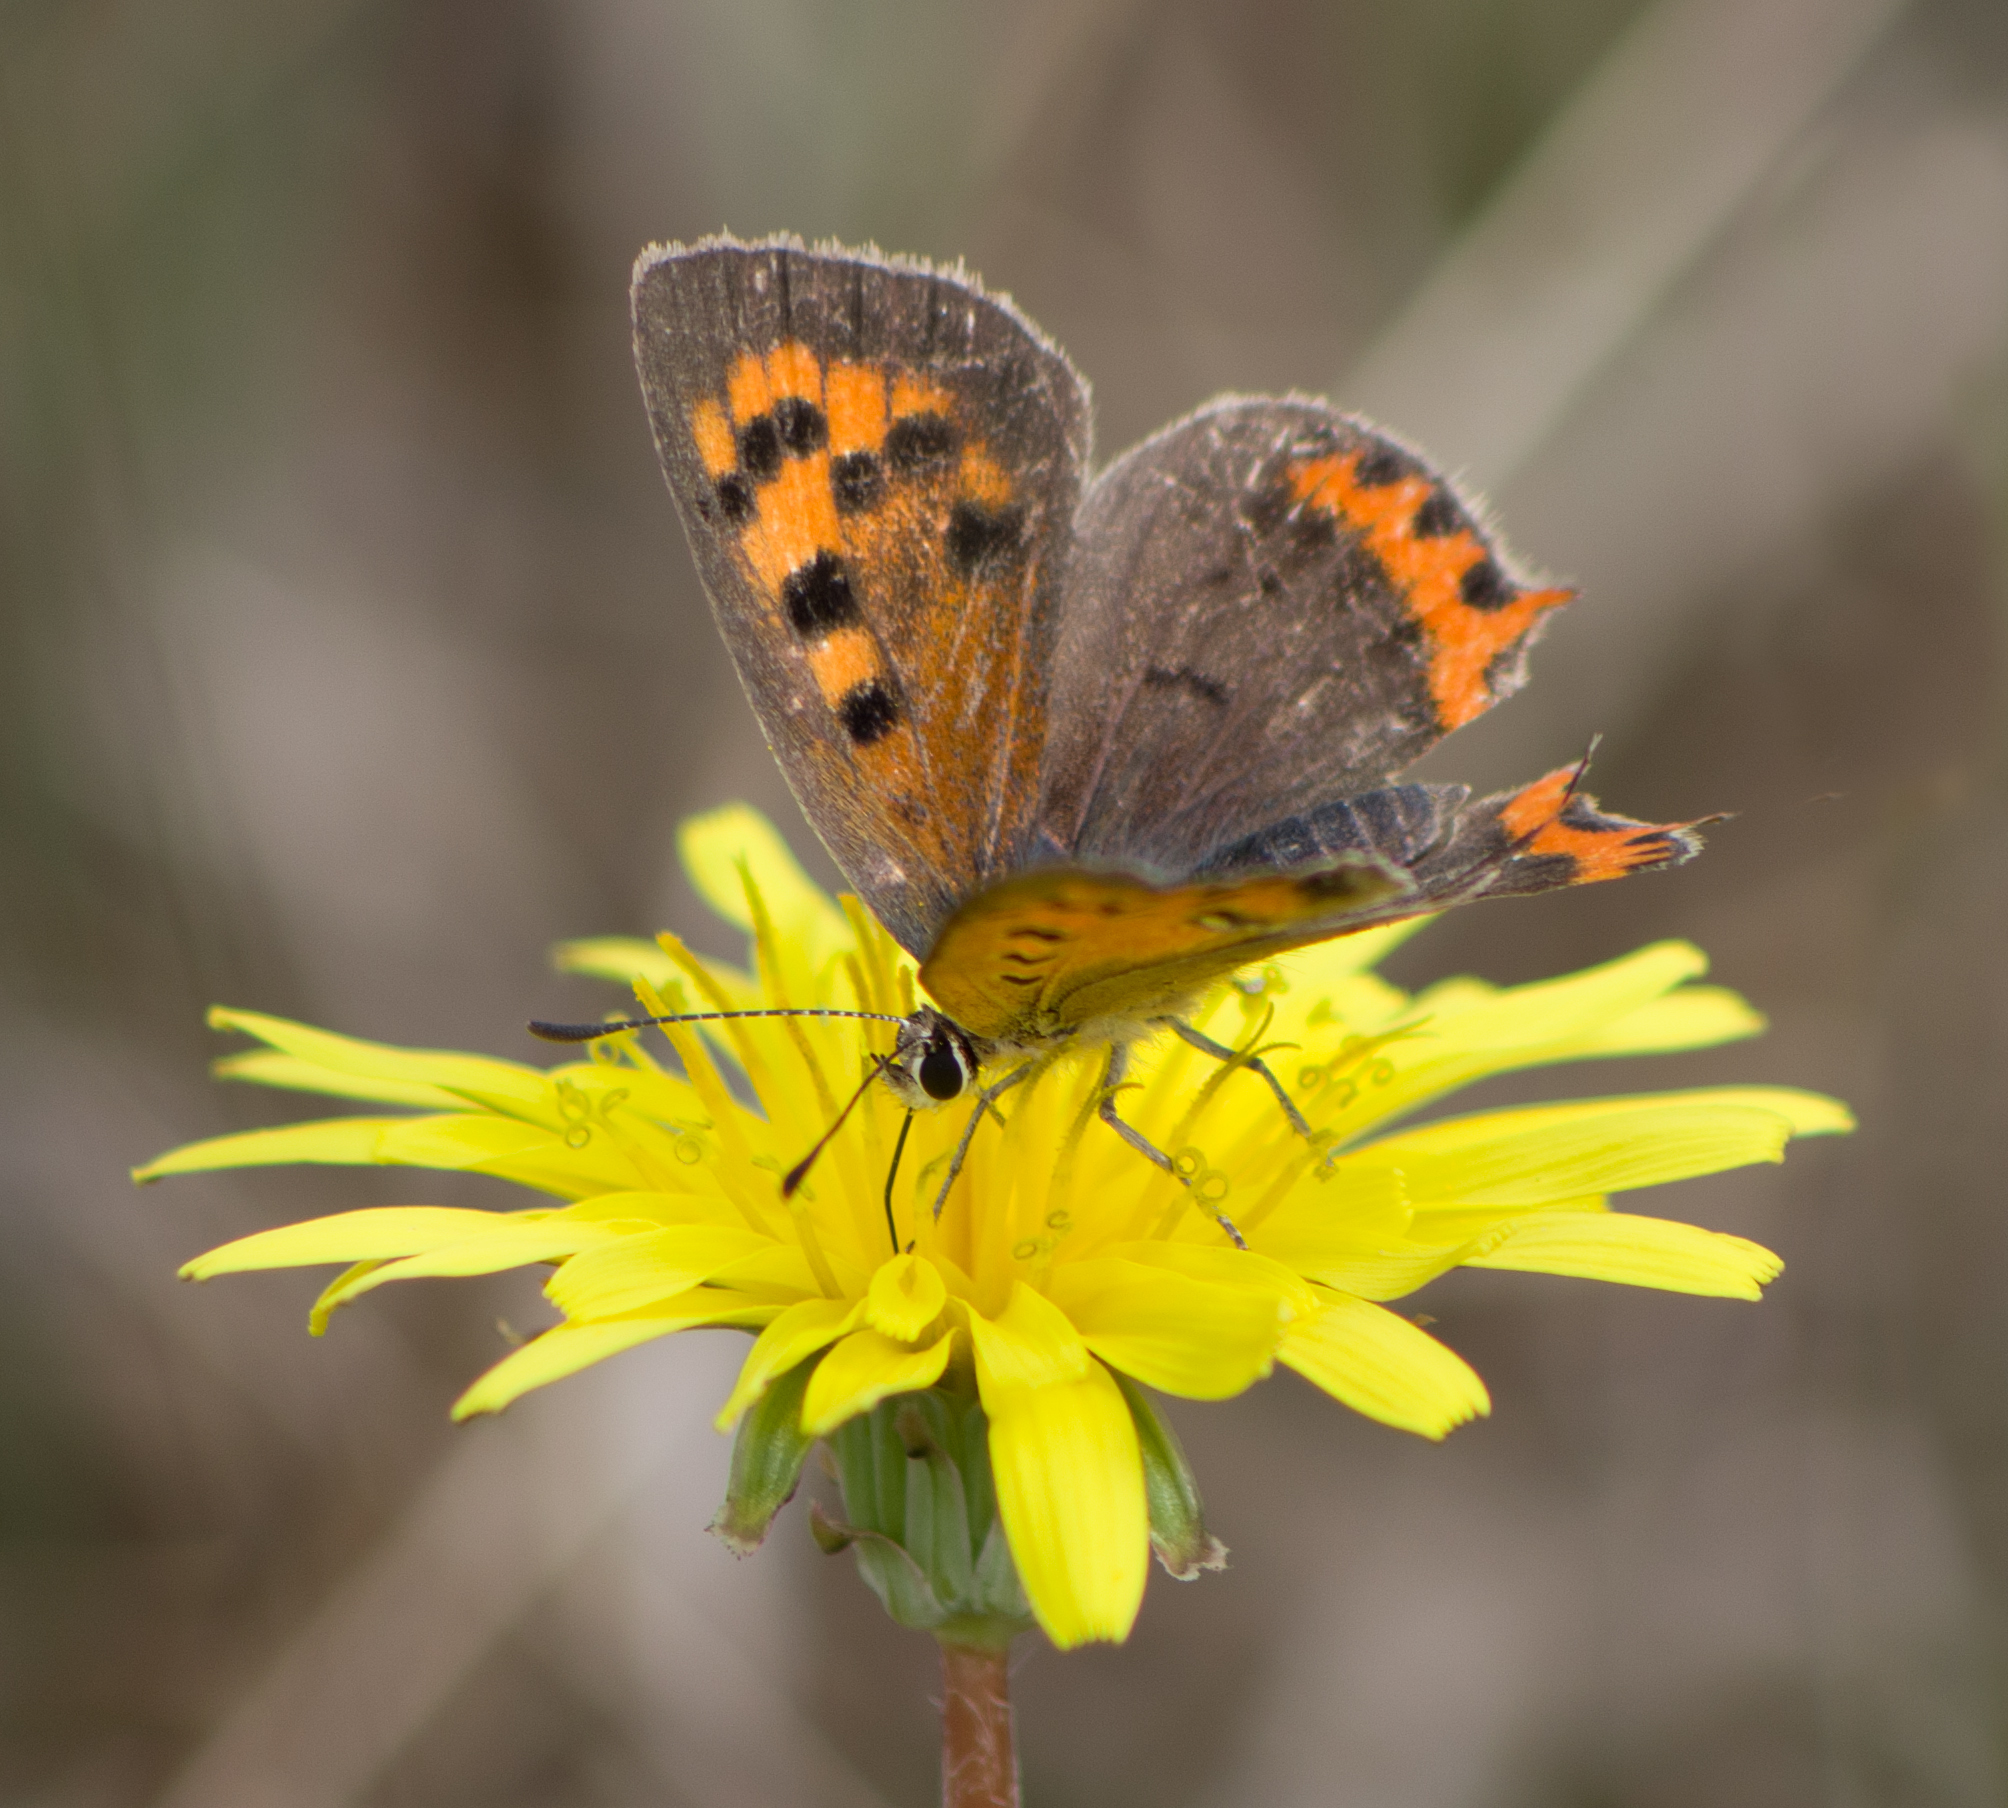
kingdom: Animalia
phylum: Arthropoda
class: Insecta
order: Lepidoptera
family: Lycaenidae
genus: Lycaena
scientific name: Lycaena phlaeas
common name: Small copper
